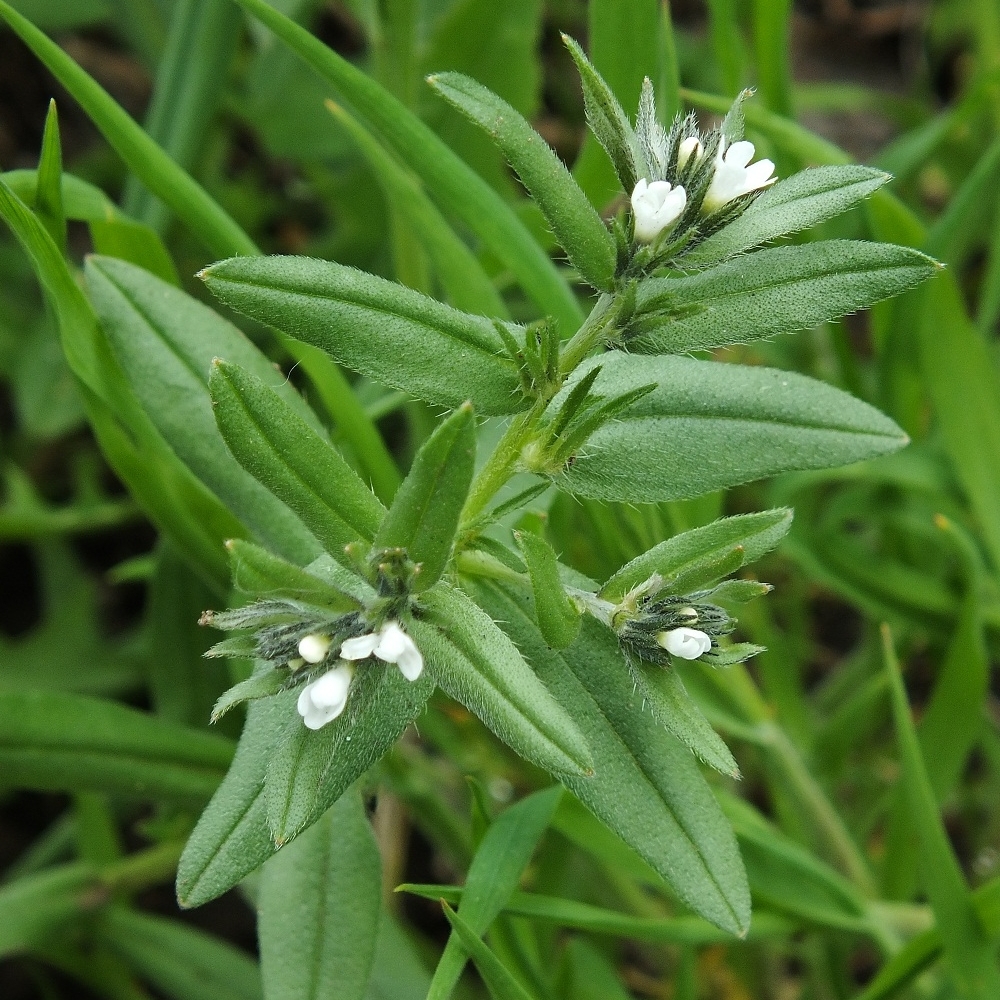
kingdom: Plantae
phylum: Tracheophyta
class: Magnoliopsida
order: Boraginales
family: Boraginaceae
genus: Buglossoides
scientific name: Buglossoides arvensis
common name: Corn gromwell
